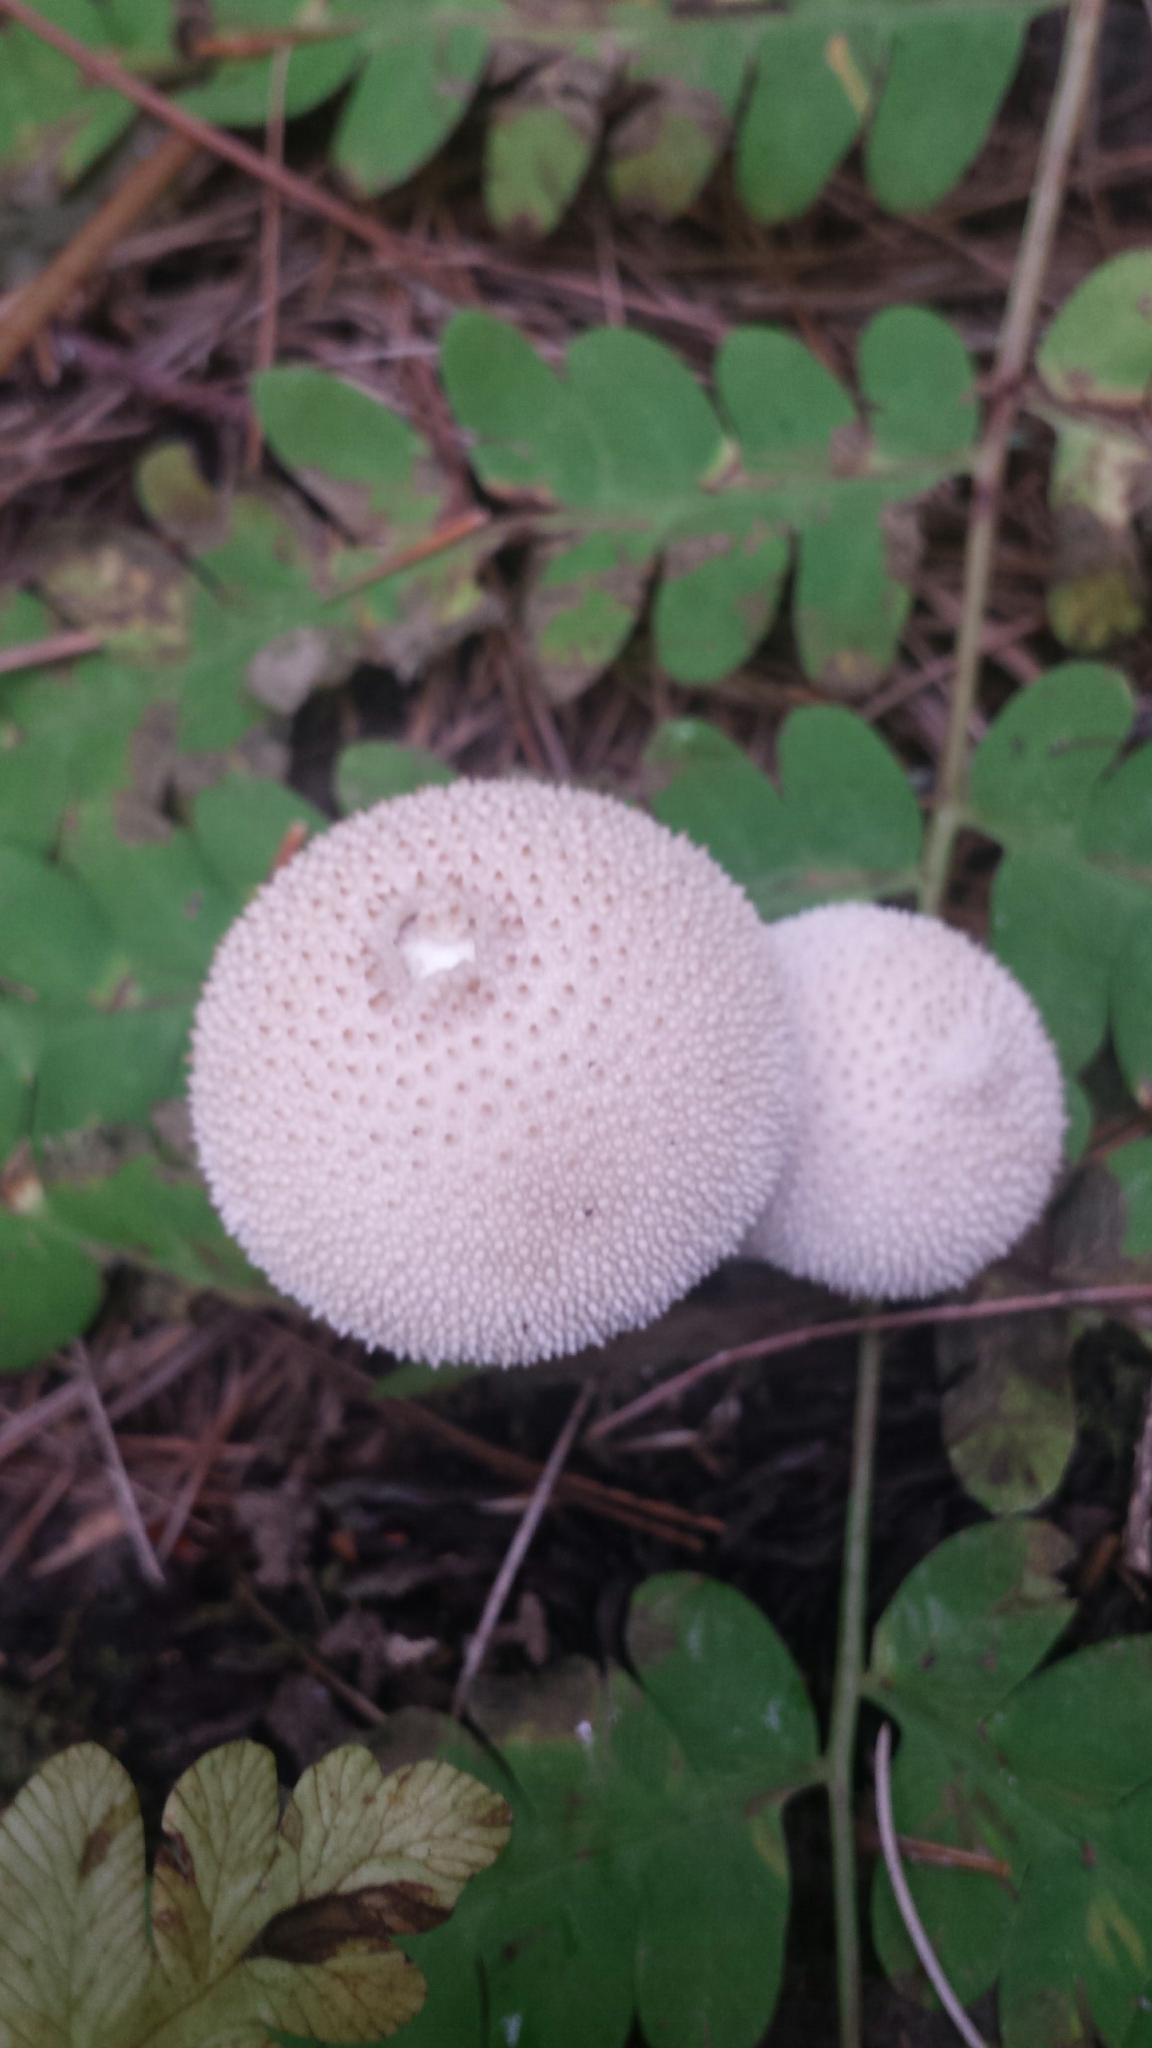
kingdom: Fungi
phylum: Basidiomycota
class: Agaricomycetes
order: Agaricales
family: Lycoperdaceae
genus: Lycoperdon
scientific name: Lycoperdon perlatum
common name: Common puffball
